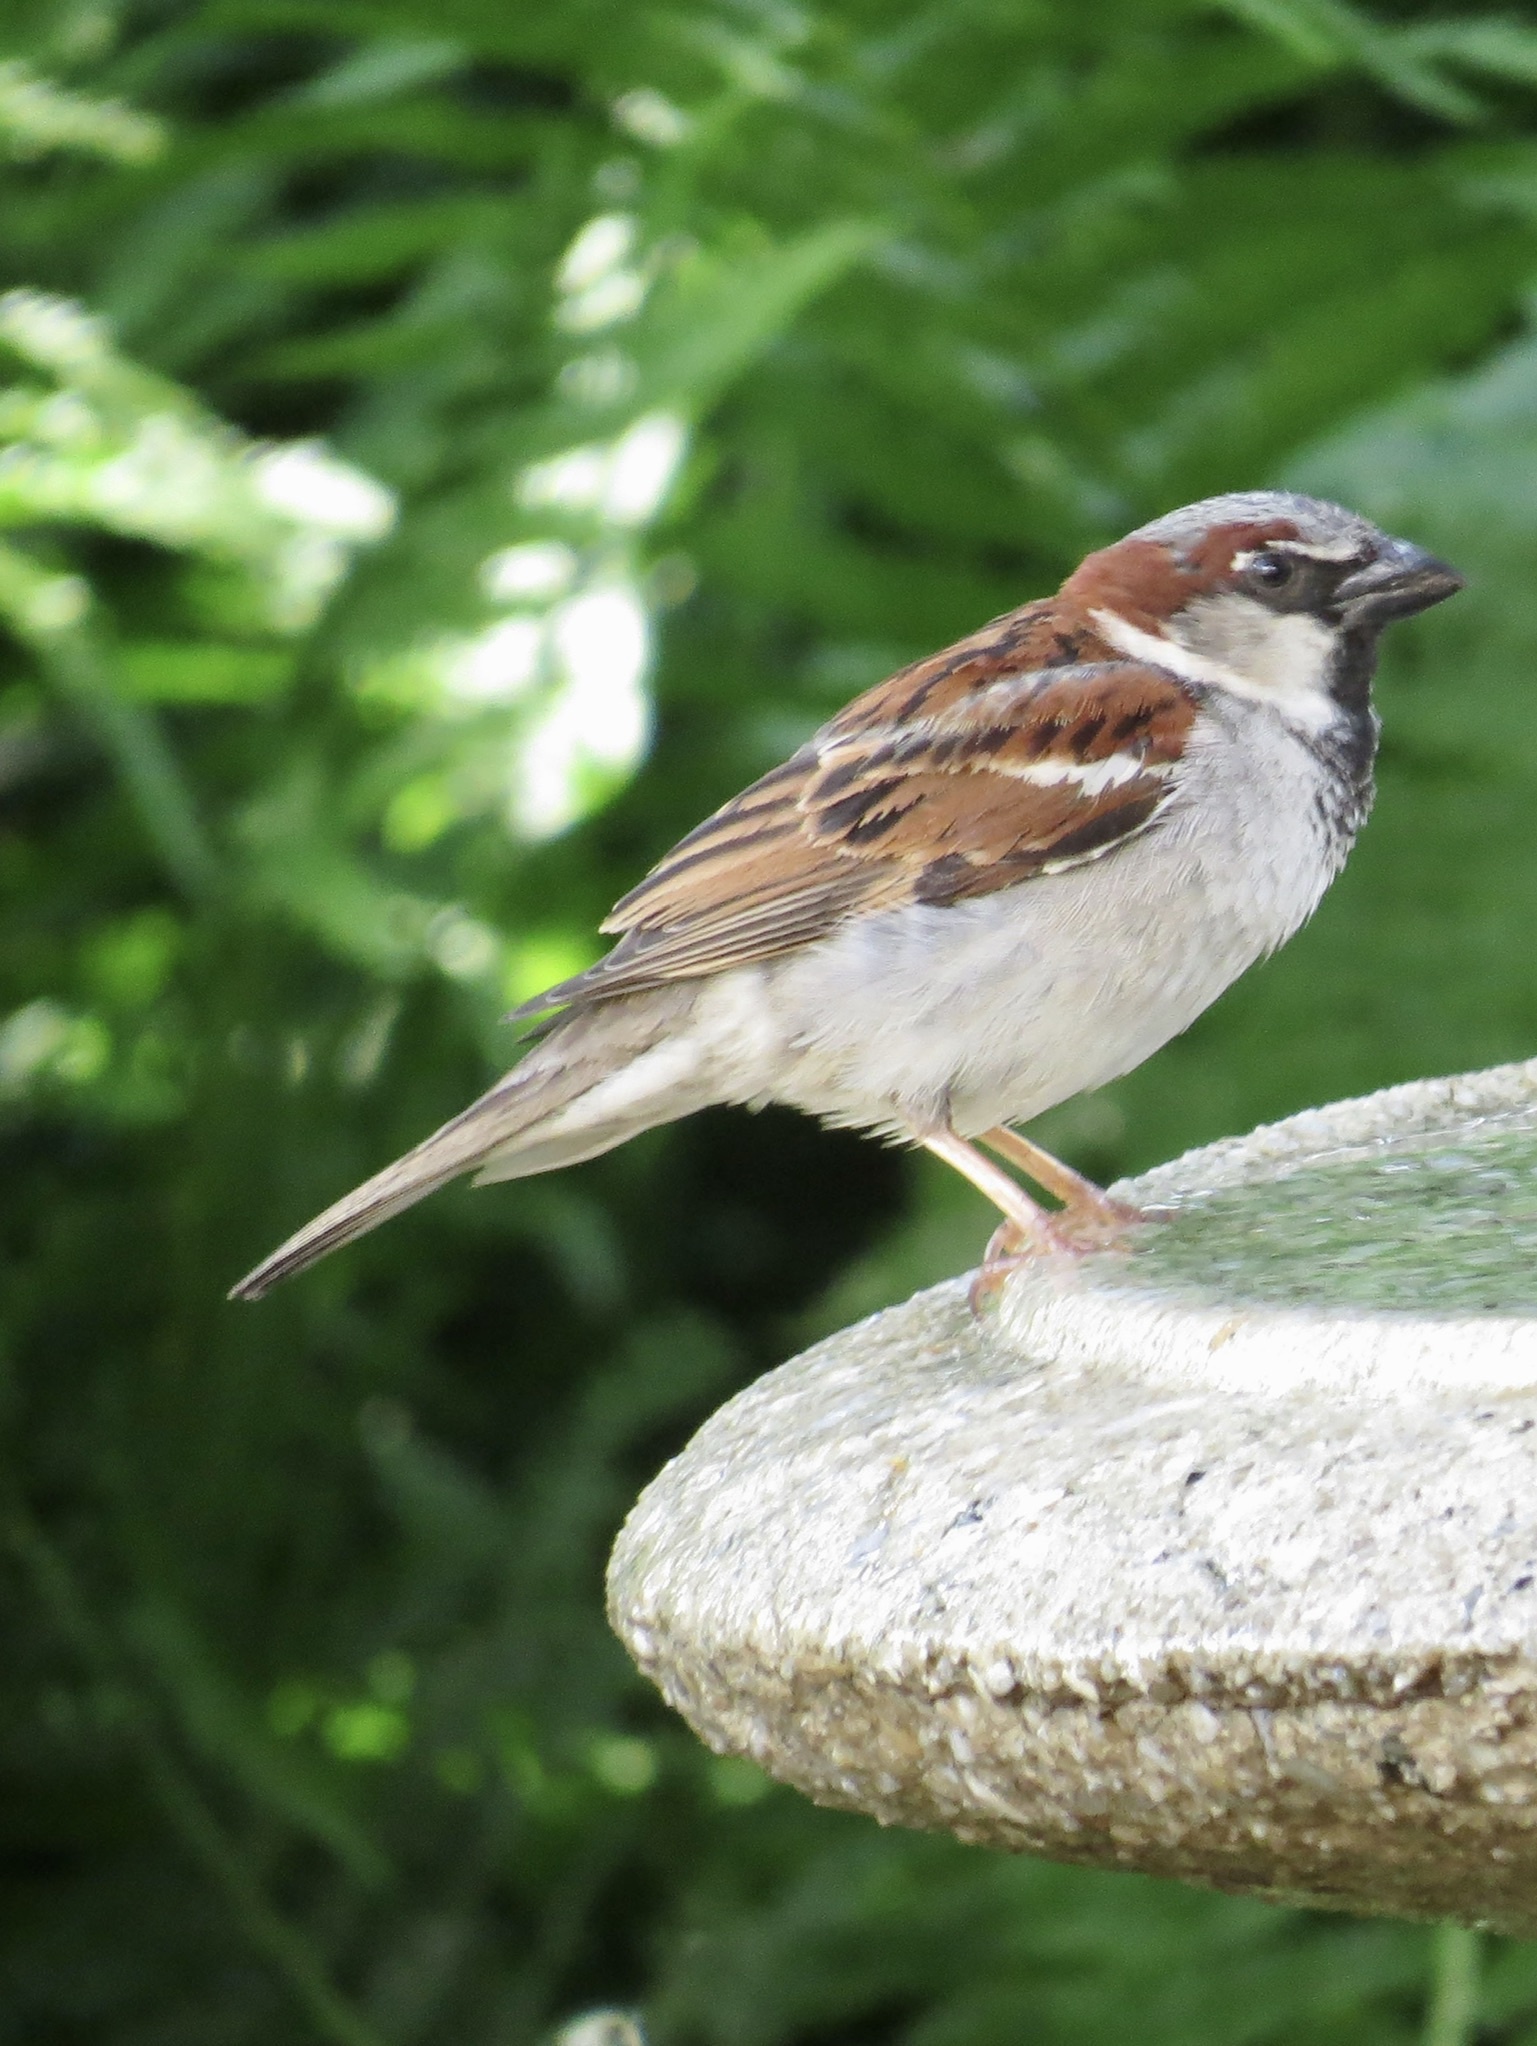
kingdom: Animalia
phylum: Chordata
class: Aves
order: Passeriformes
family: Passeridae
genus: Passer
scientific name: Passer domesticus
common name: House sparrow
